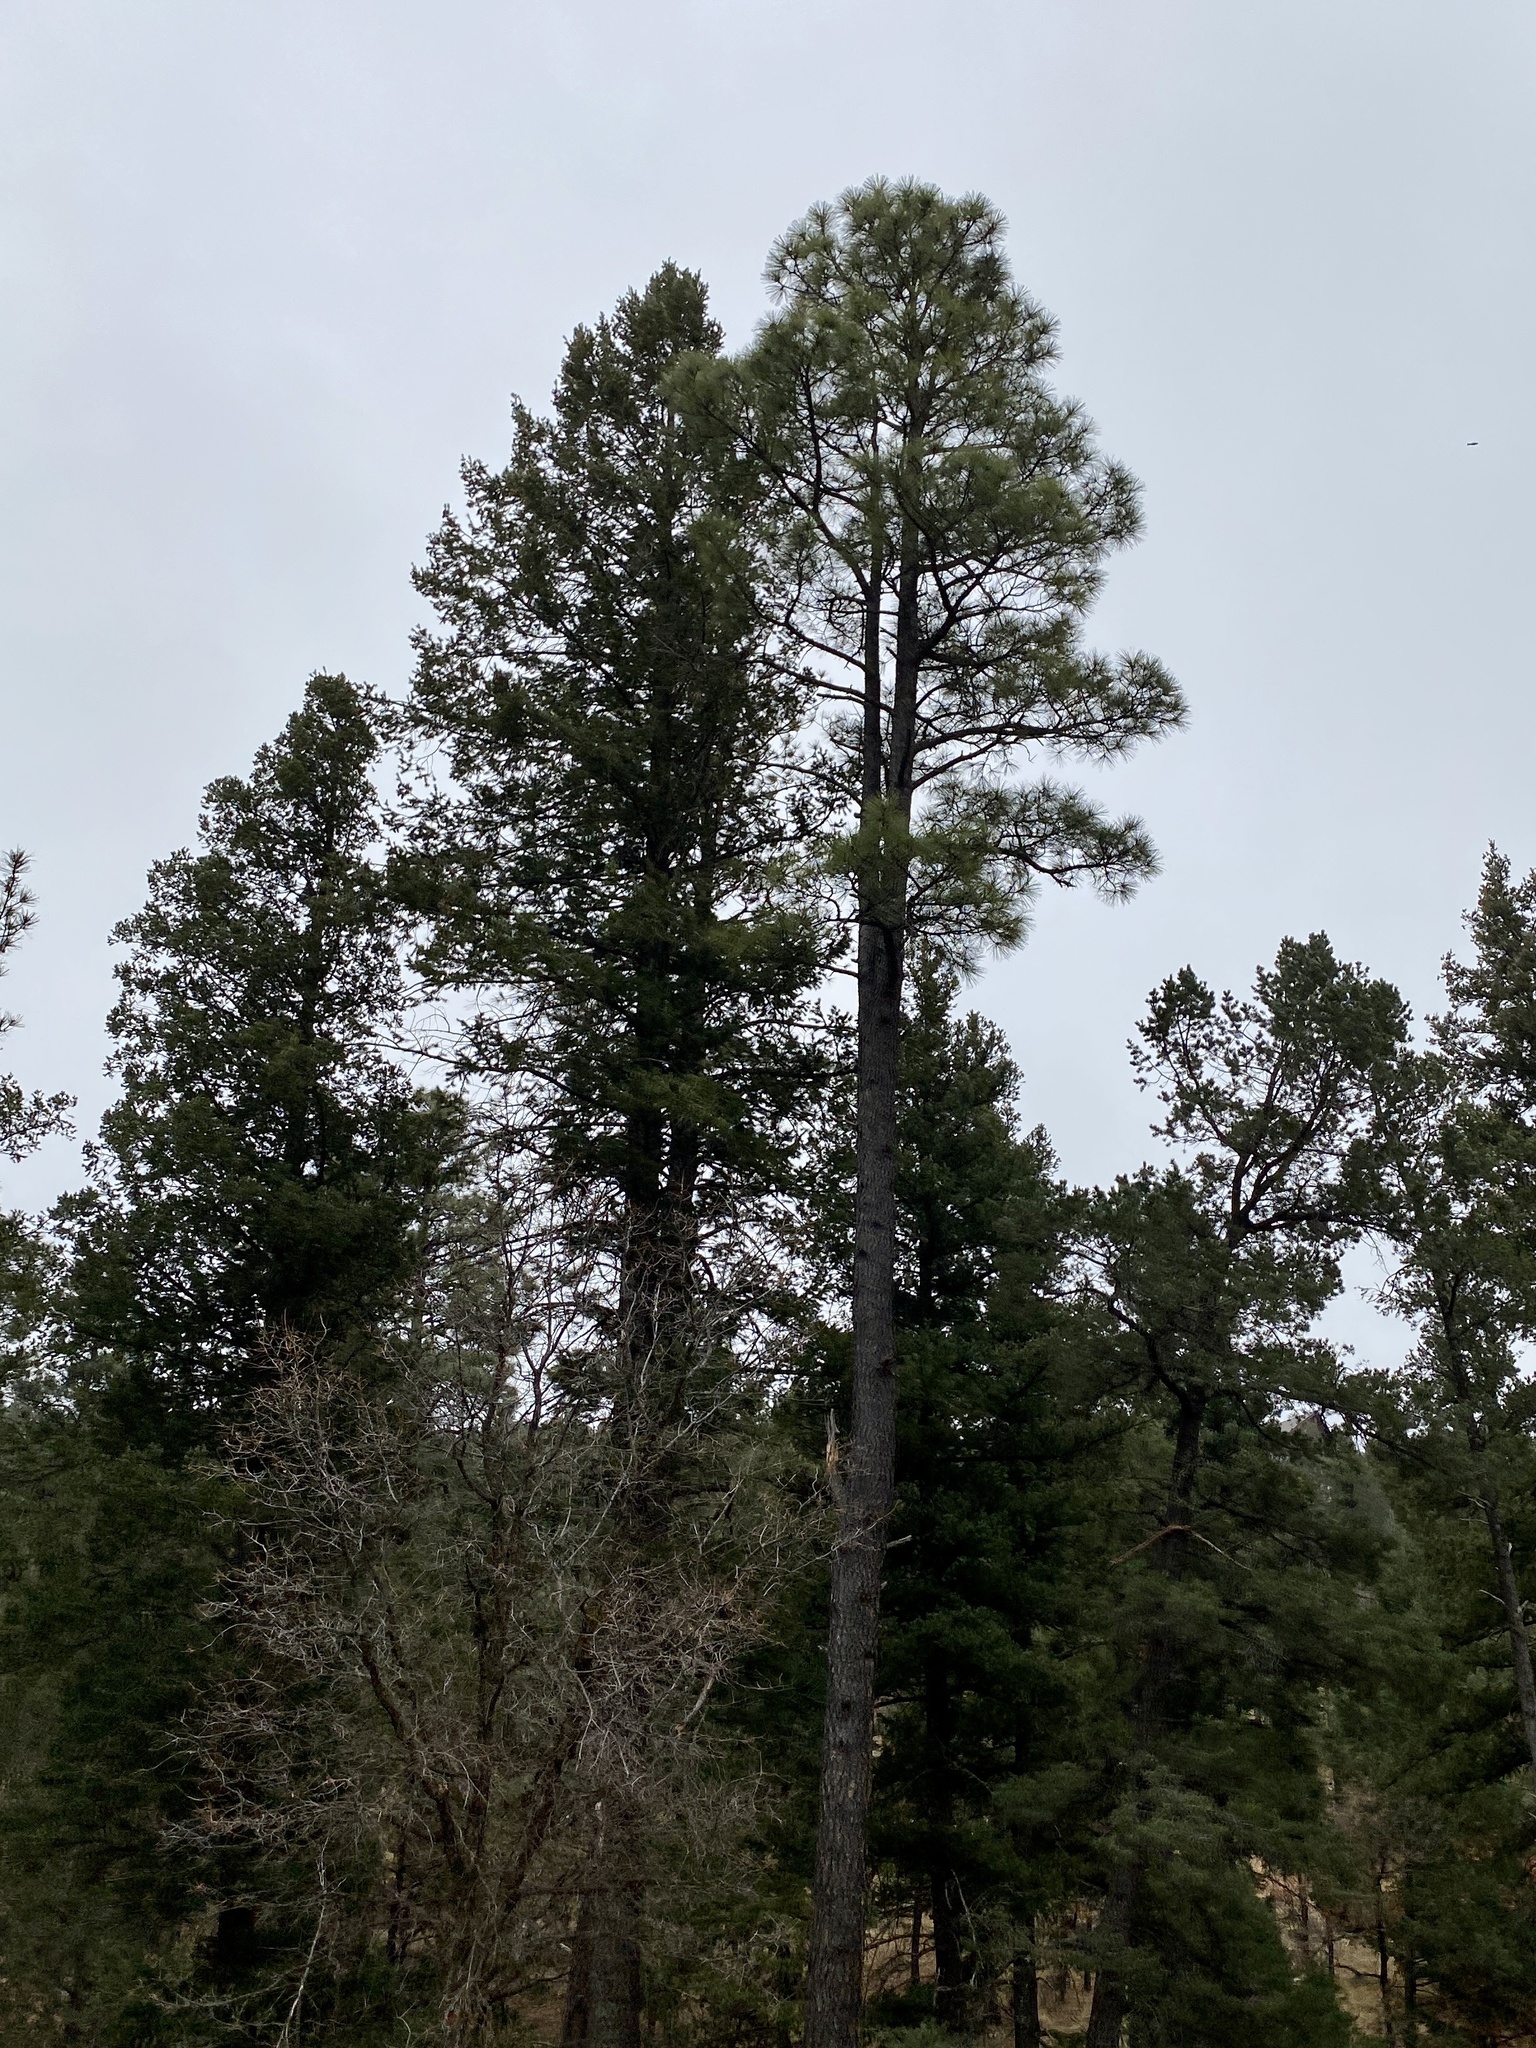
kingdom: Plantae
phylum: Tracheophyta
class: Pinopsida
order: Pinales
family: Pinaceae
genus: Pinus
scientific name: Pinus ponderosa
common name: Western yellow-pine
